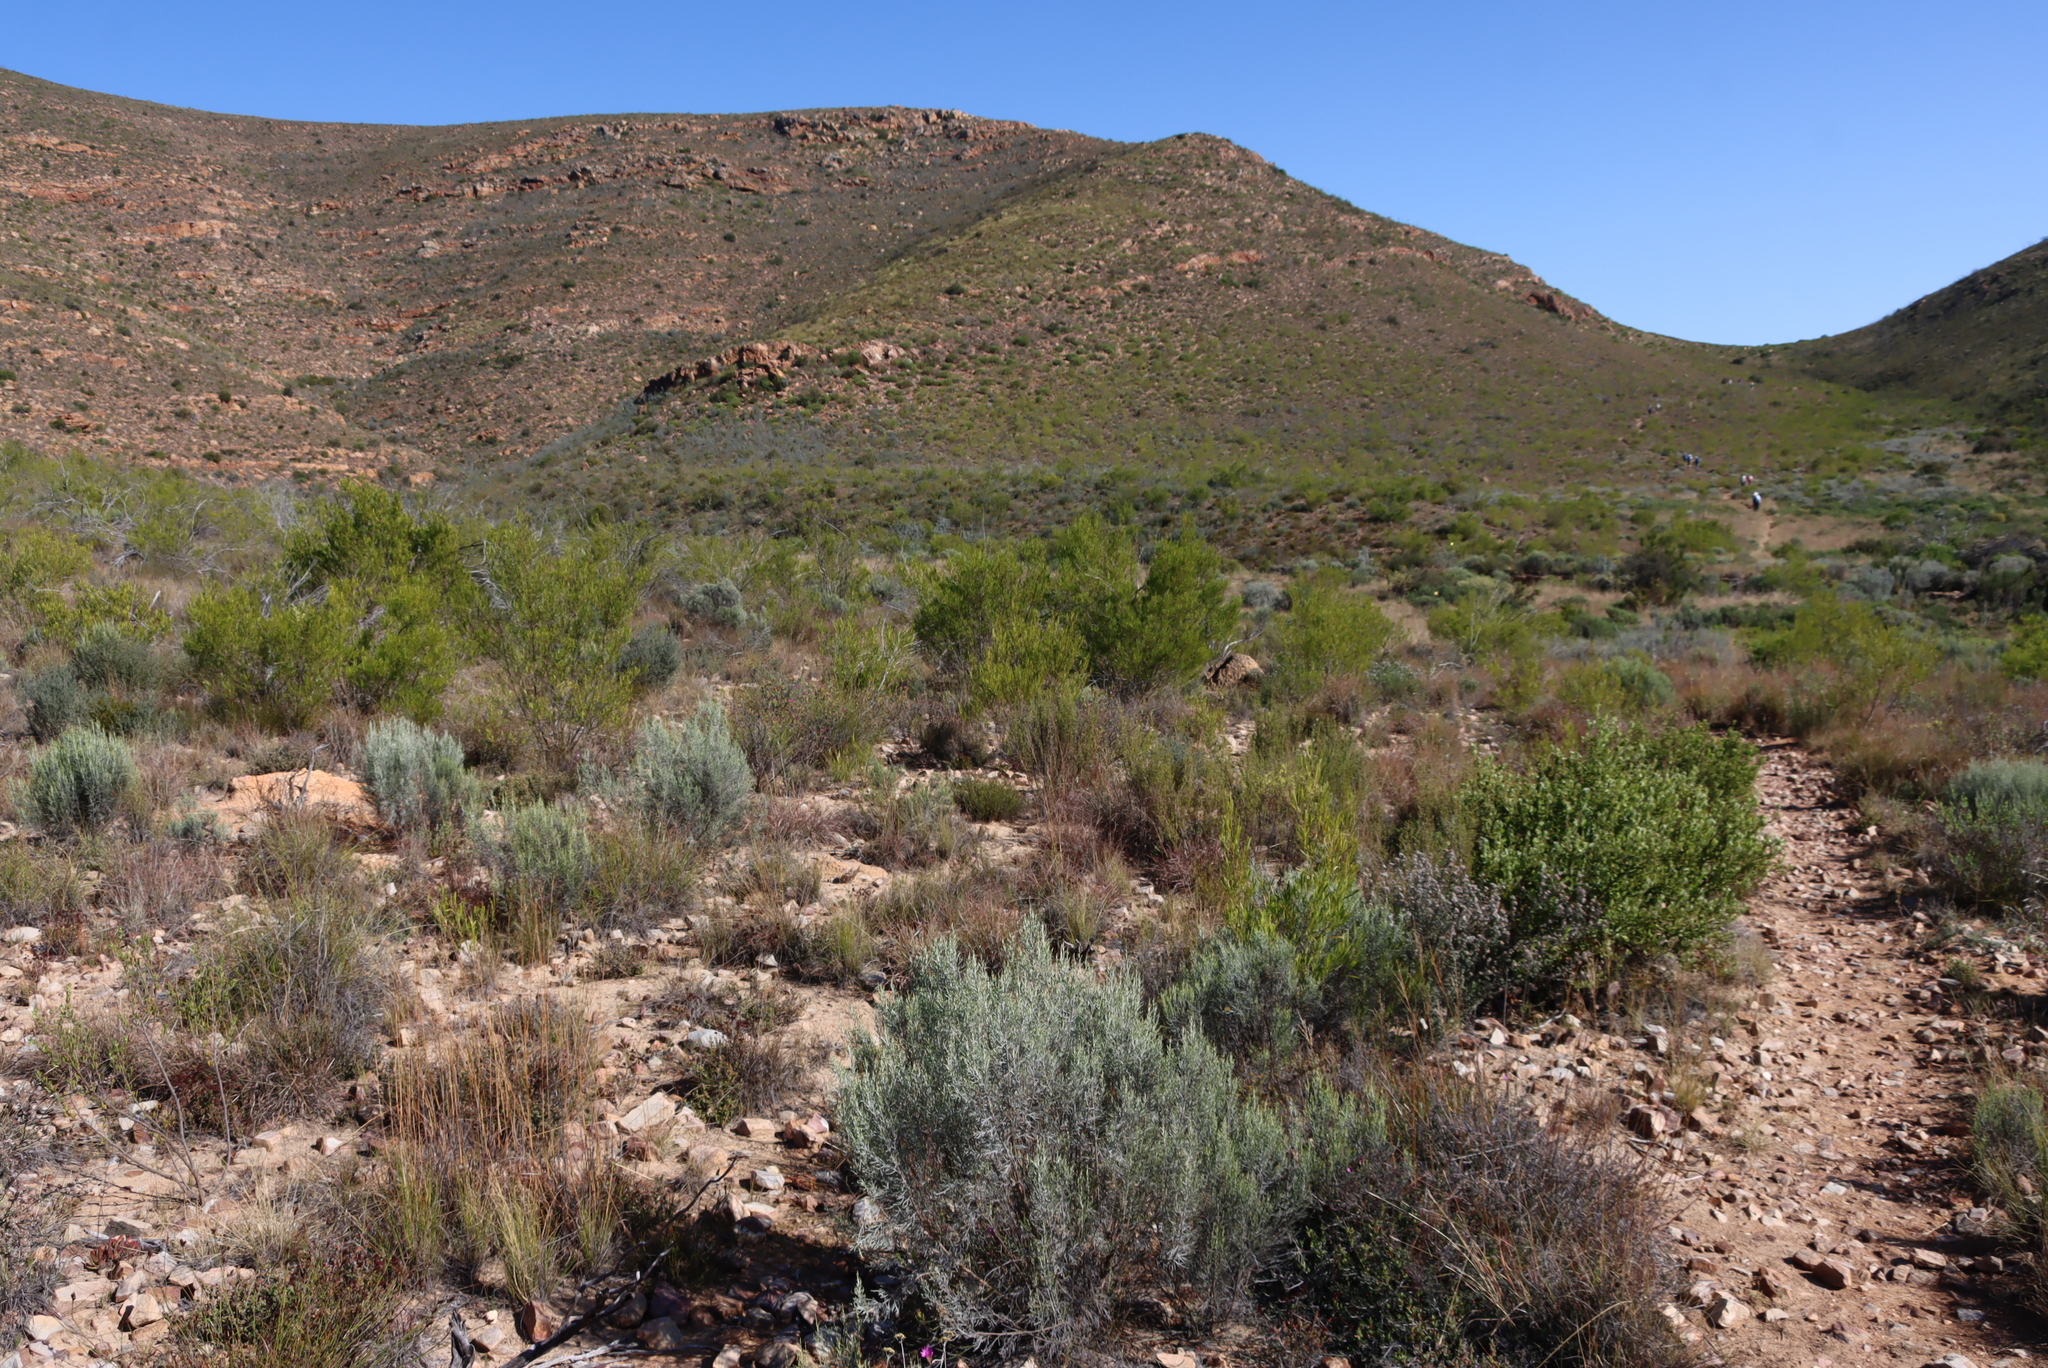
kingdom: Plantae
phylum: Tracheophyta
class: Magnoliopsida
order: Asterales
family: Asteraceae
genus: Dicerothamnus
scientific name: Dicerothamnus rhinocerotis
